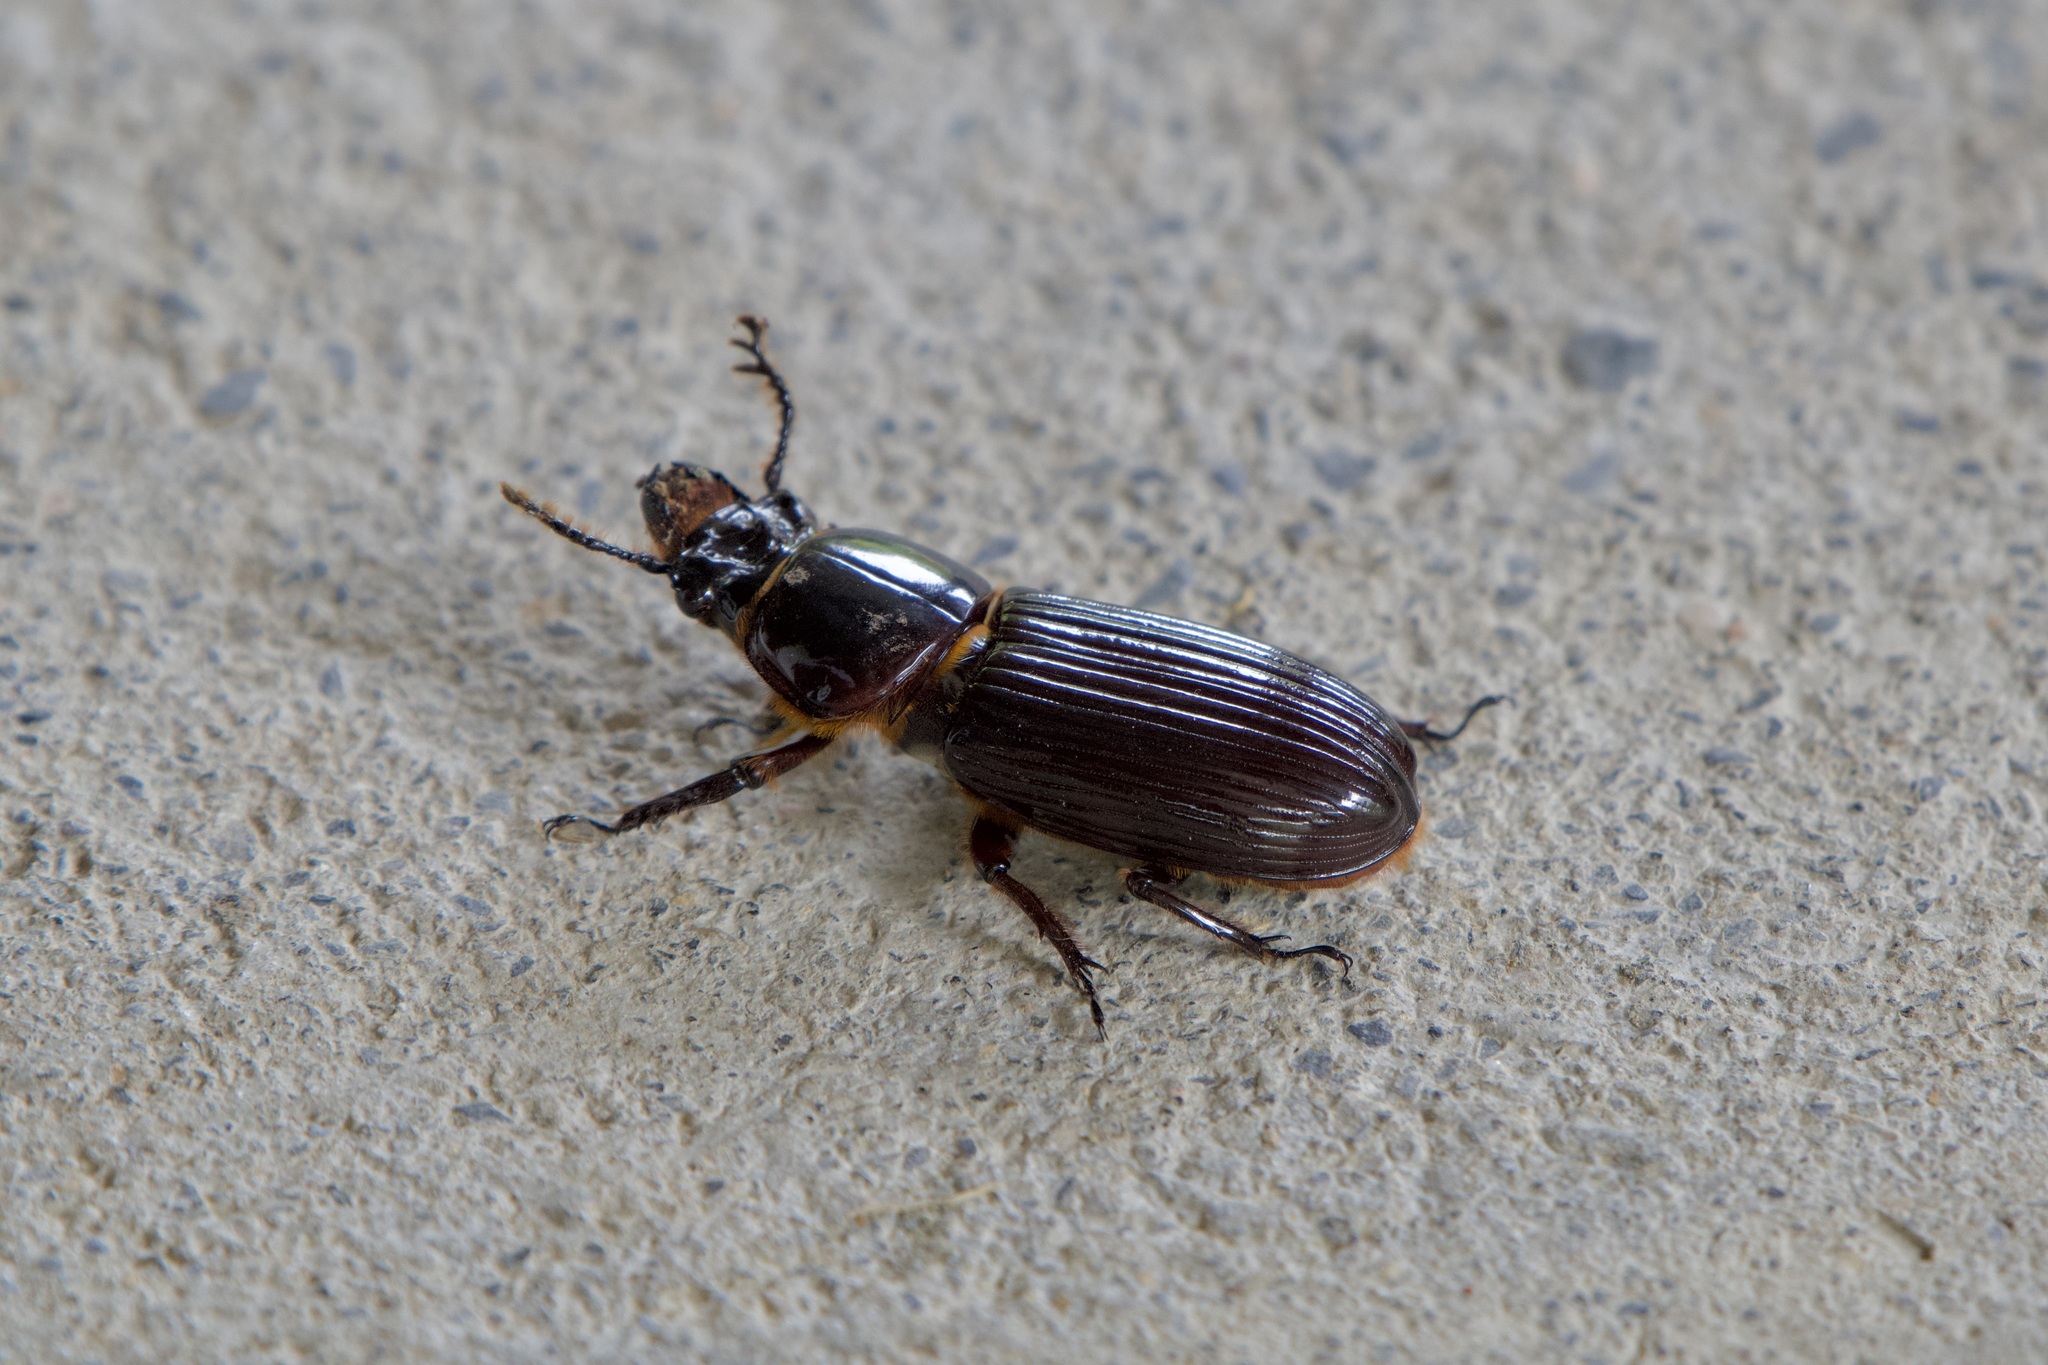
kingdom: Animalia
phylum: Arthropoda
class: Insecta
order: Coleoptera
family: Passalidae
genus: Veturius
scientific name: Veturius standfussi
